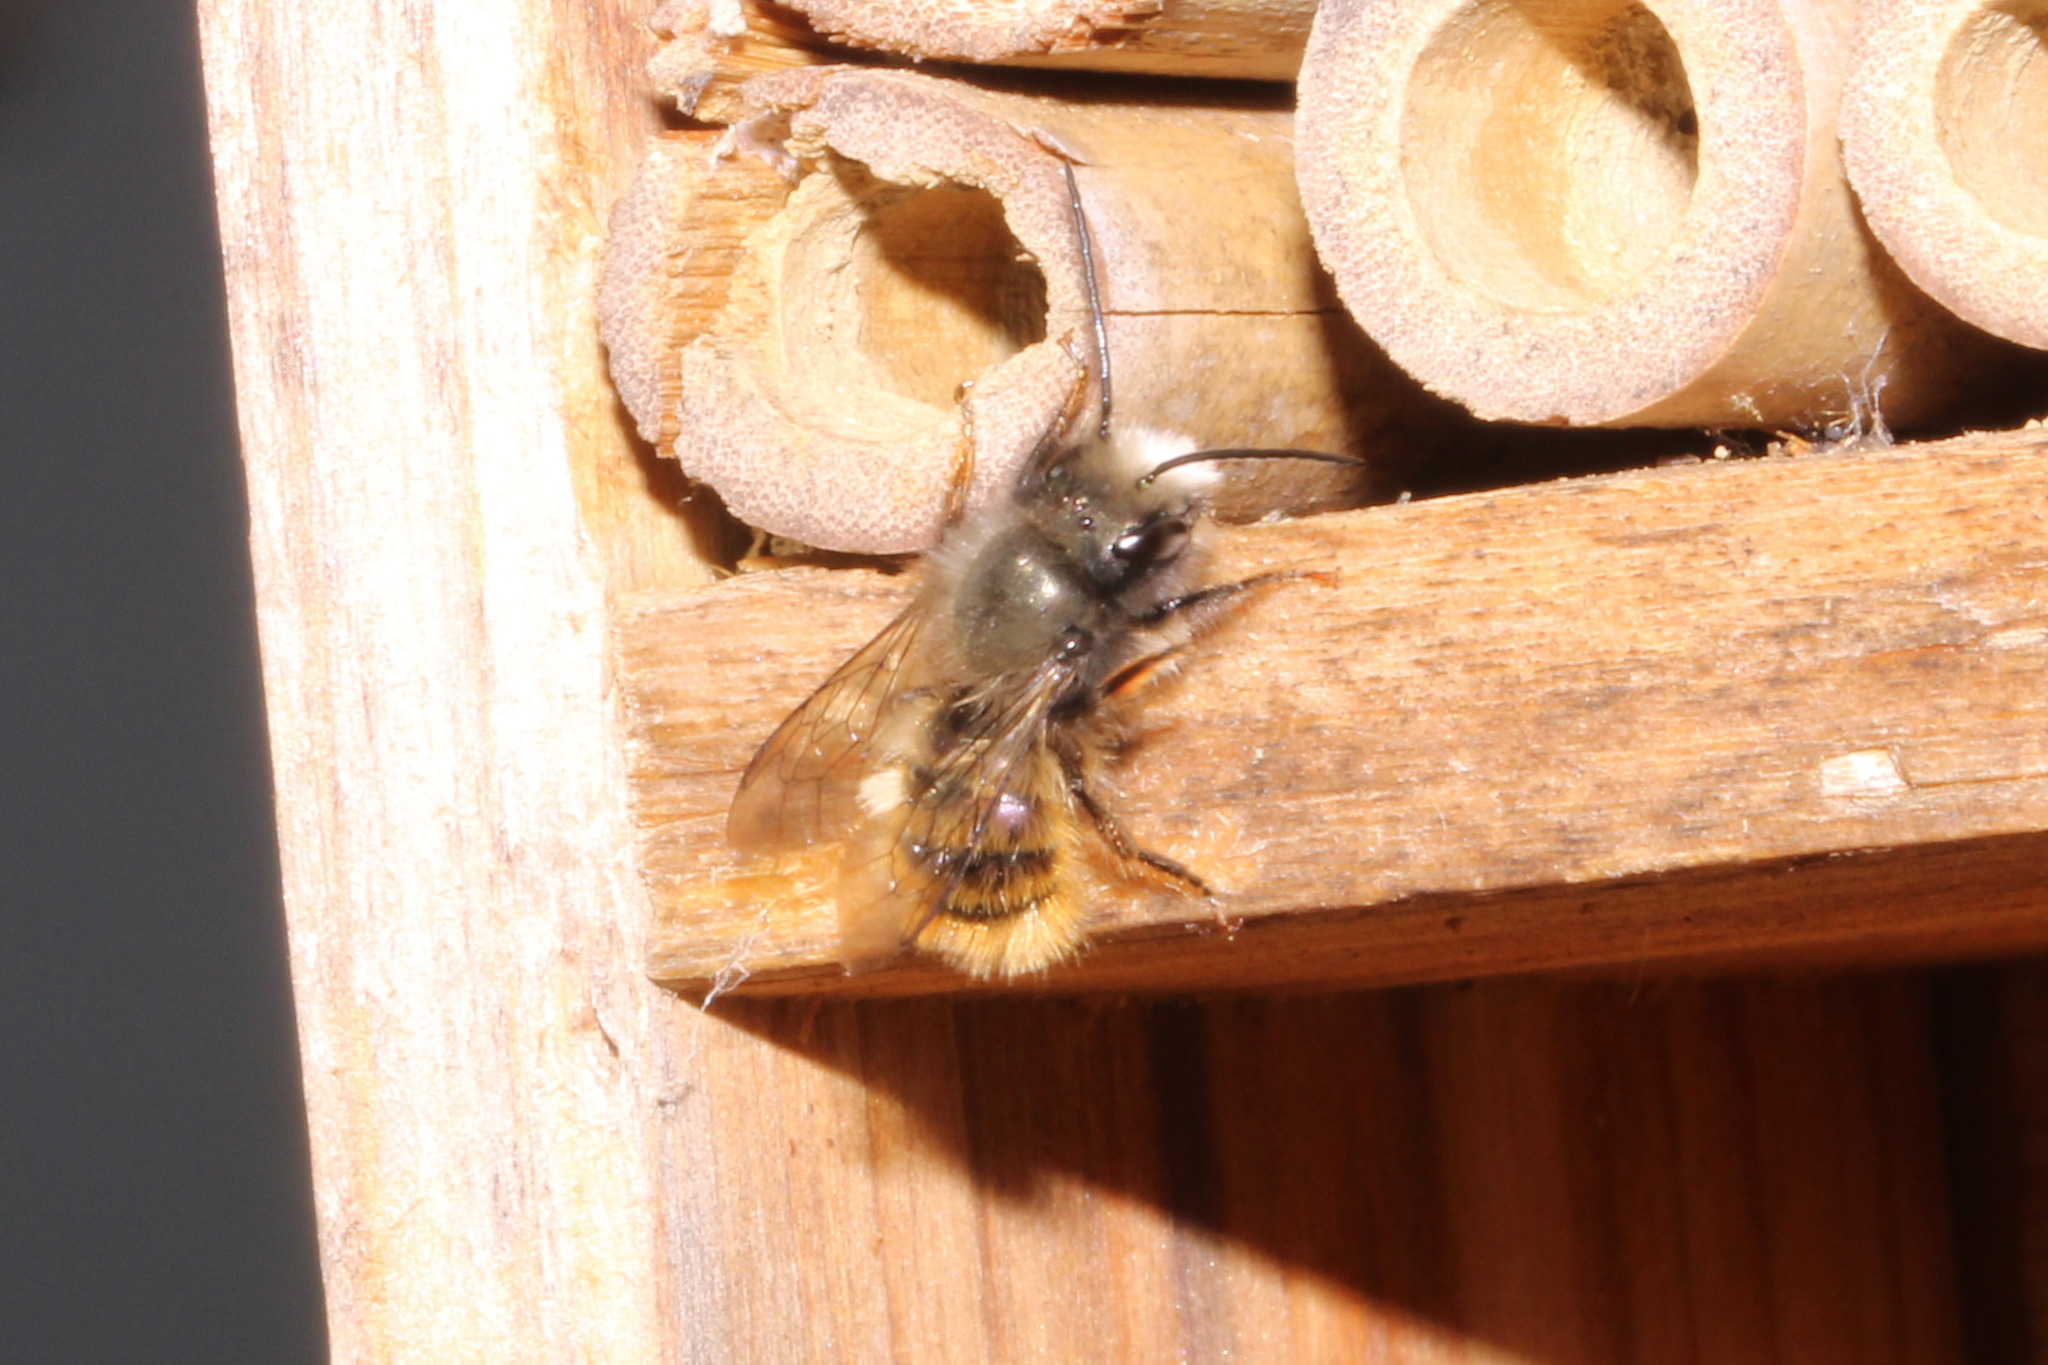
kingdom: Animalia
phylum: Arthropoda
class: Insecta
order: Hymenoptera
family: Megachilidae
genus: Osmia
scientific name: Osmia cornuta
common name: Mason bee
